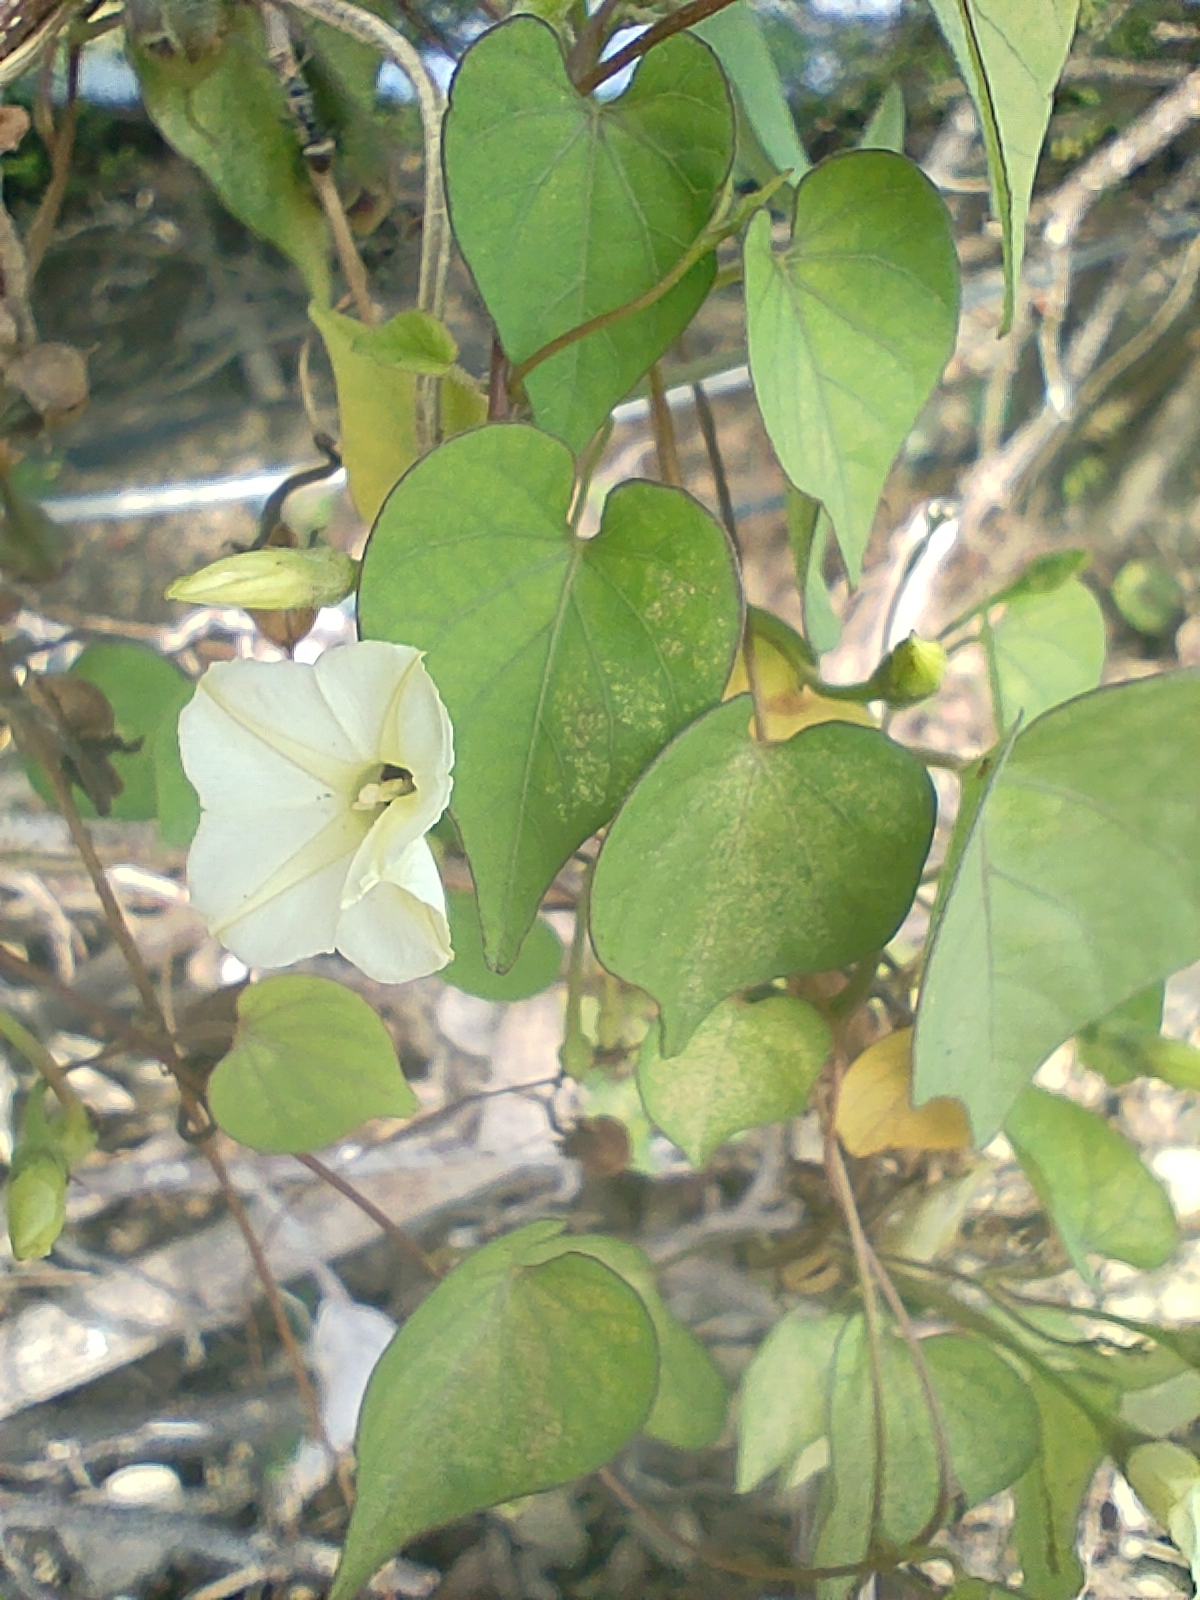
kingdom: Plantae
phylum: Tracheophyta
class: Magnoliopsida
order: Solanales
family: Convolvulaceae
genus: Ipomoea
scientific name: Ipomoea obscura
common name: Obscure morning-glory
